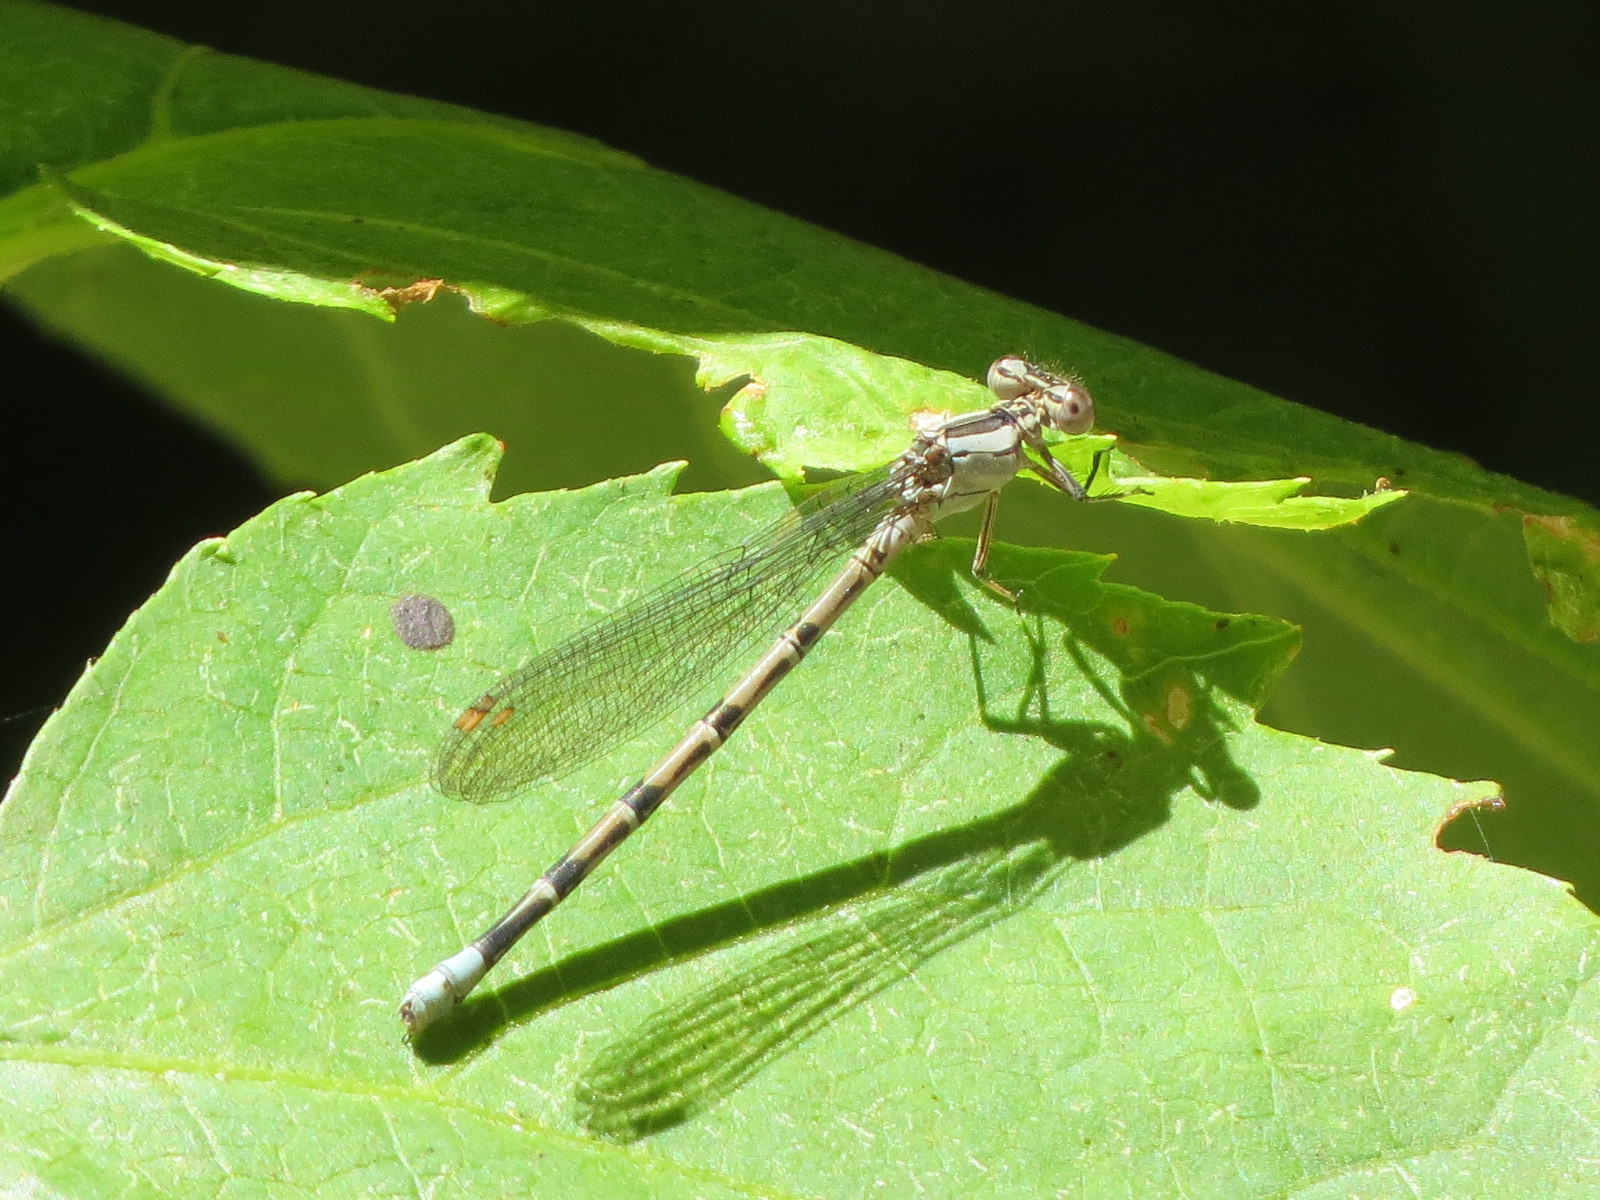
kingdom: Animalia
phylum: Arthropoda
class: Insecta
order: Odonata
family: Coenagrionidae
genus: Argia
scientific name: Argia vivida
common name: Vivid dancer
